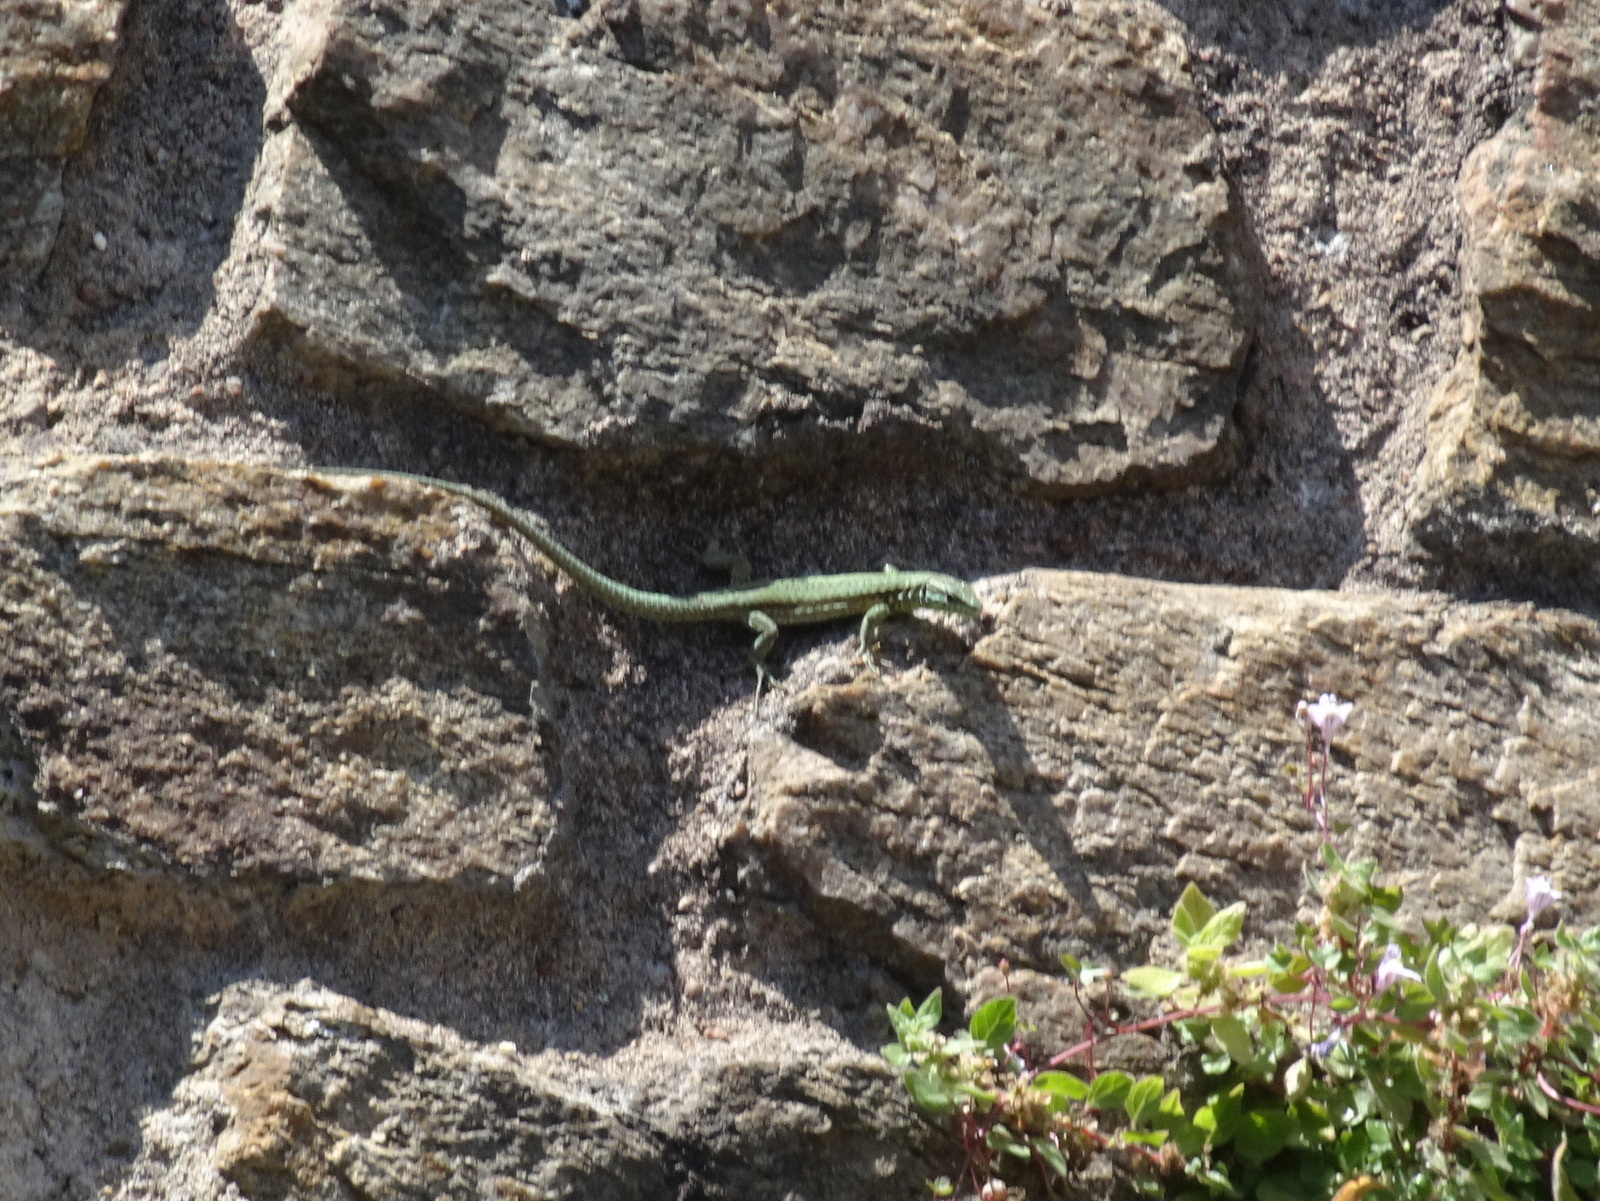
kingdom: Animalia
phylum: Chordata
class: Squamata
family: Lacertidae
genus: Podarcis
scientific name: Podarcis muralis
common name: Common wall lizard
